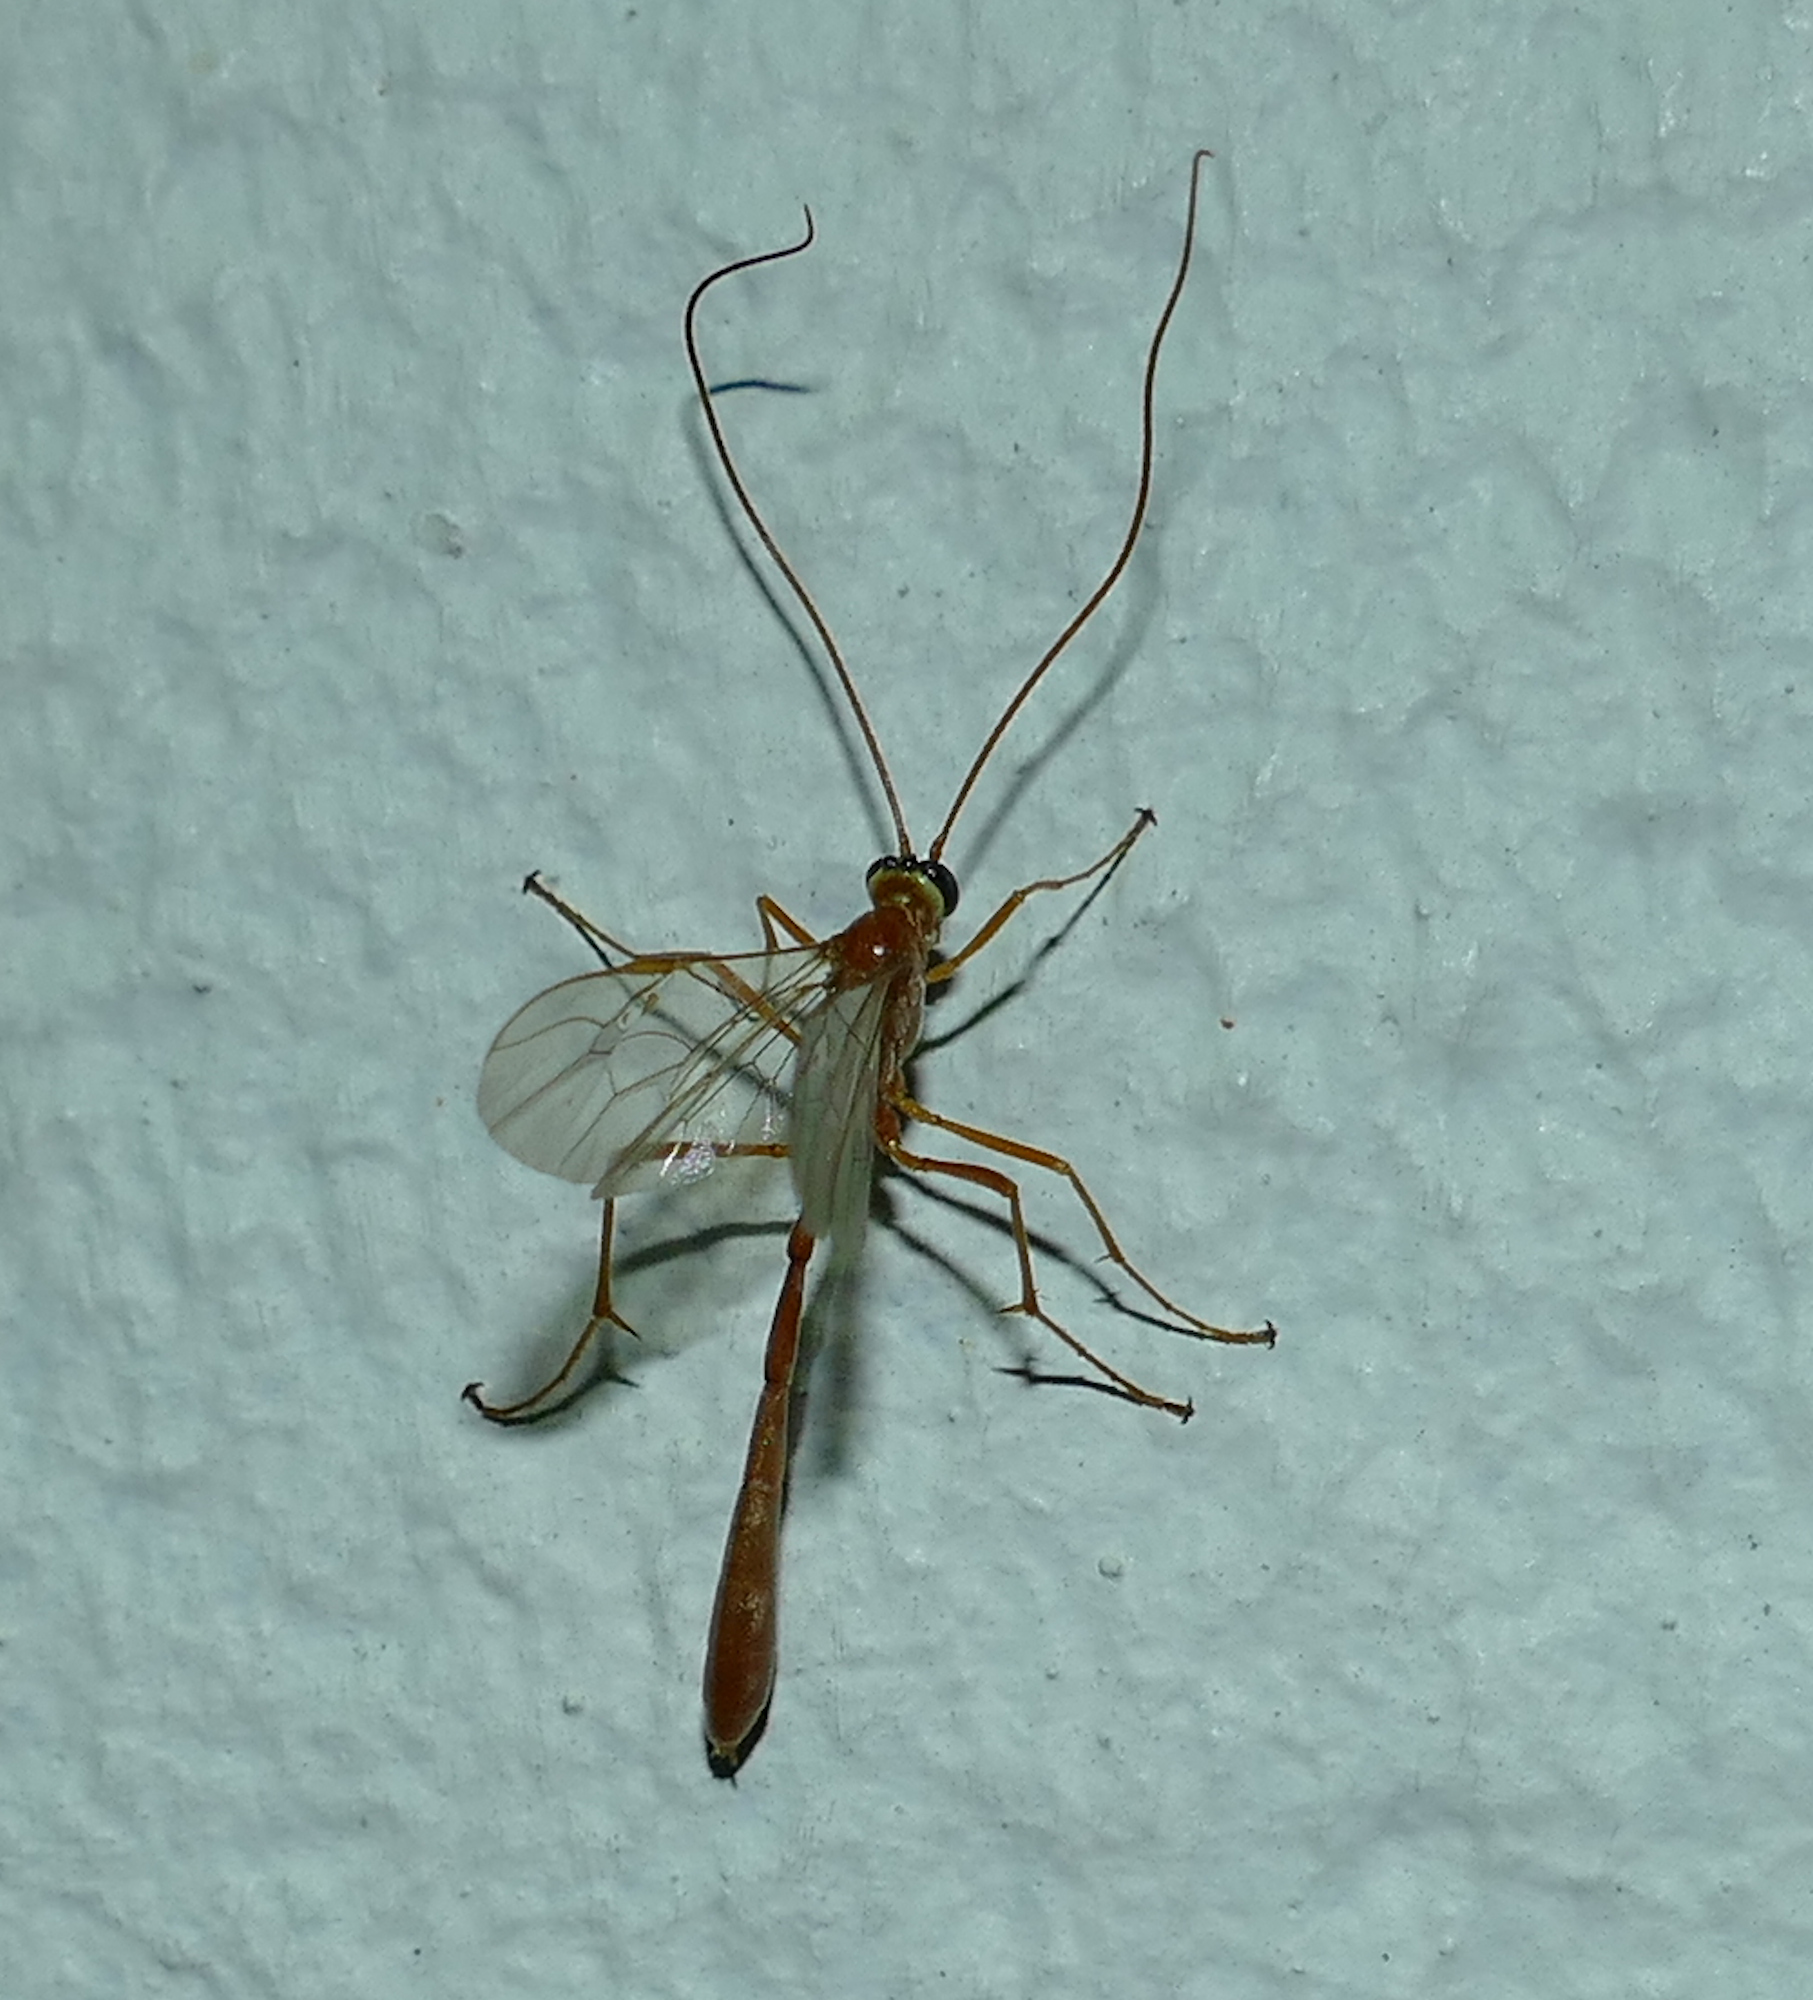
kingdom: Animalia
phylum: Arthropoda
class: Insecta
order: Hymenoptera
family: Ichneumonidae
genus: Enicospilus
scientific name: Enicospilus purgatus
